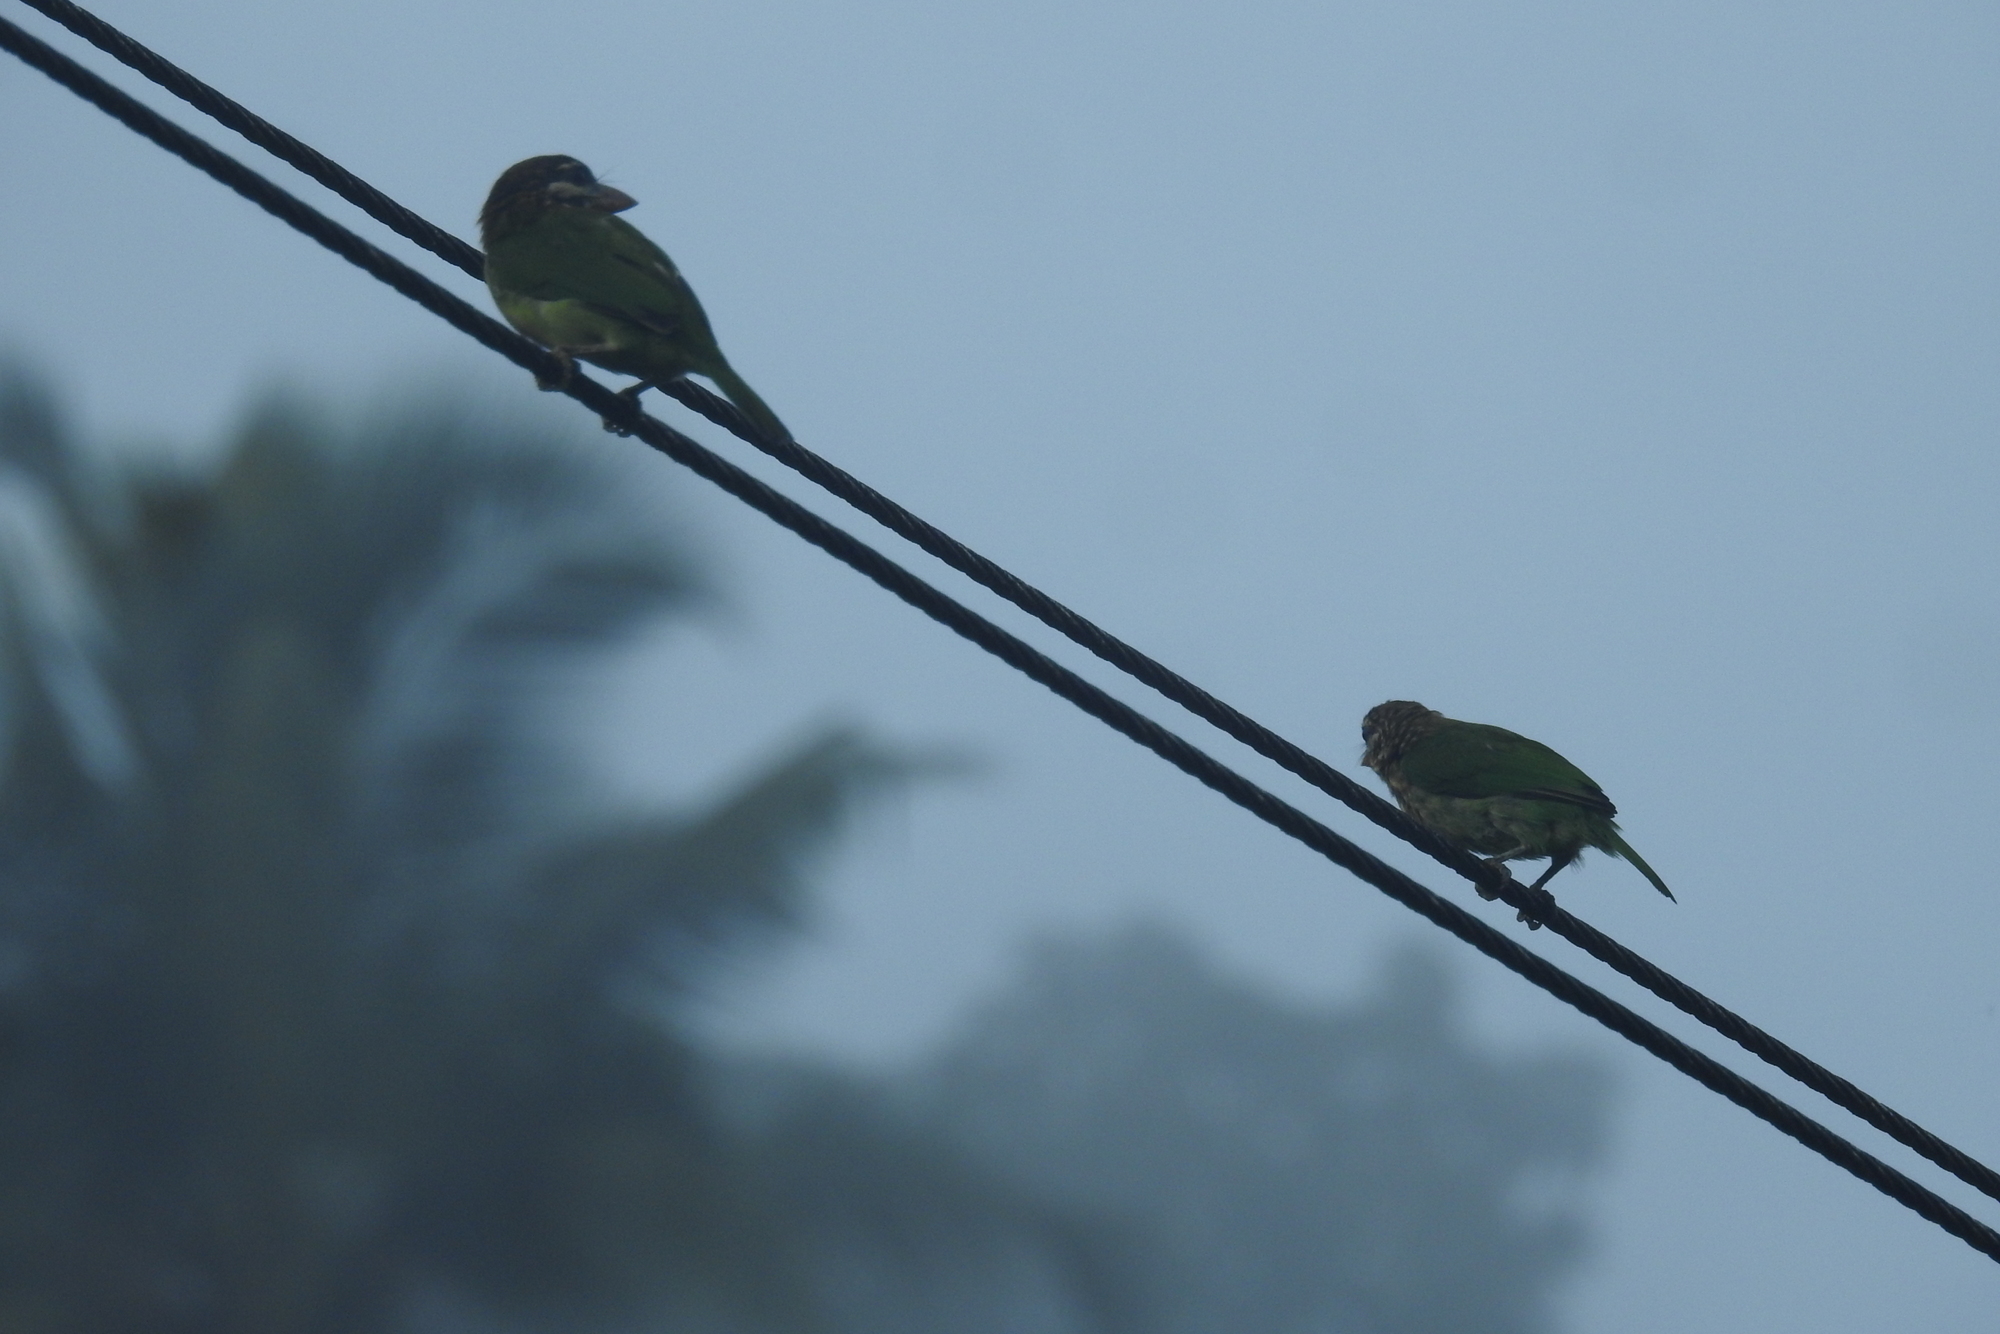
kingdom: Animalia
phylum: Chordata
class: Aves
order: Piciformes
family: Megalaimidae
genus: Psilopogon
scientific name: Psilopogon viridis
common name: White-cheeked barbet
